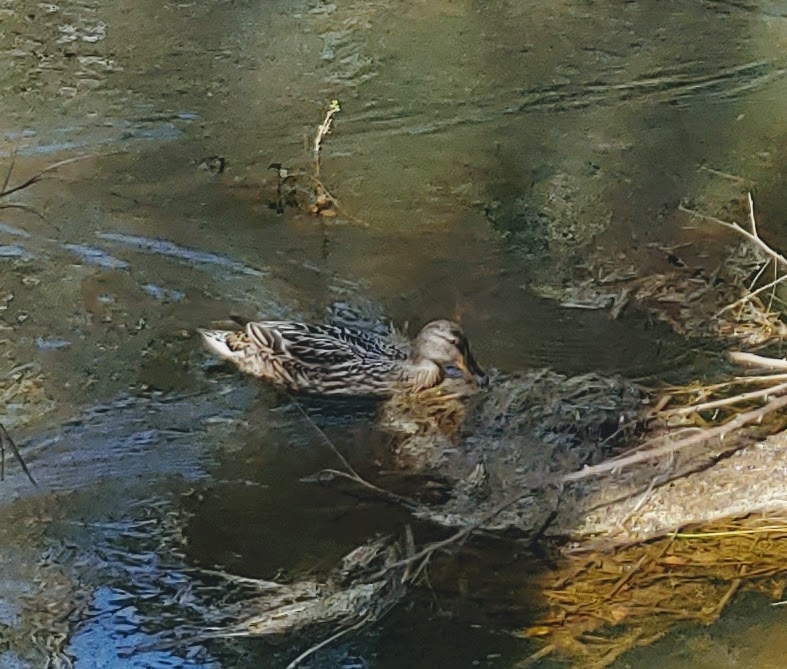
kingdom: Animalia
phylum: Chordata
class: Aves
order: Anseriformes
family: Anatidae
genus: Anas
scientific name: Anas platyrhynchos
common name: Mallard
